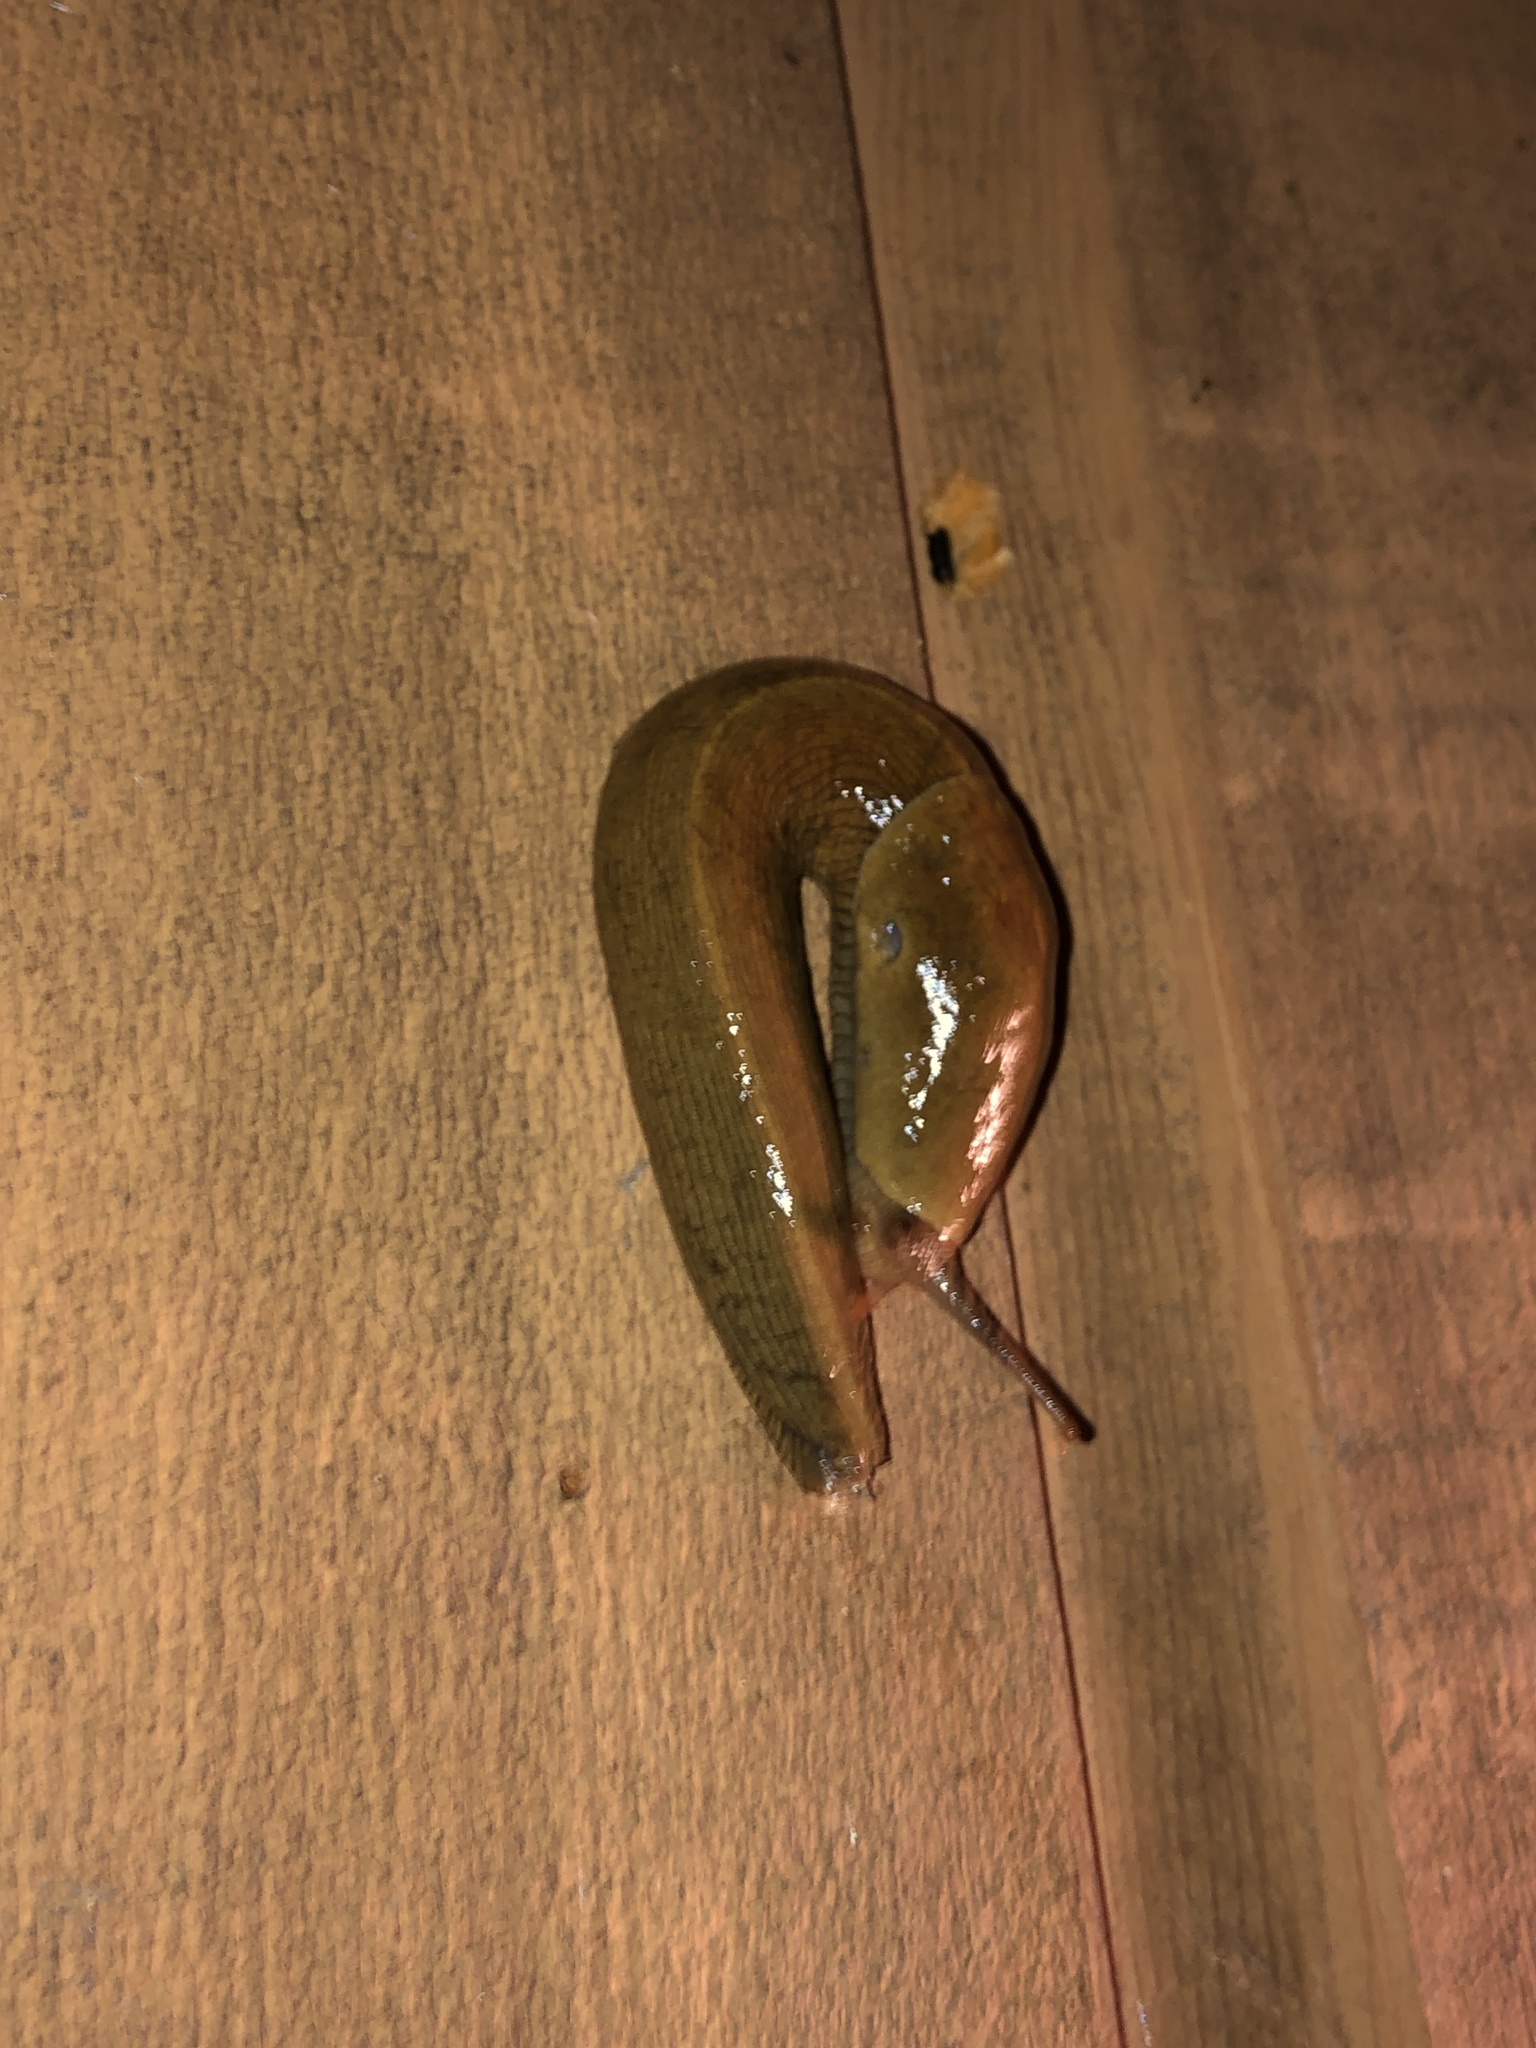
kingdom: Animalia
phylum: Mollusca
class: Gastropoda
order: Stylommatophora
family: Ariolimacidae
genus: Ariolimax
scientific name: Ariolimax columbianus
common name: Pacific banana slug
